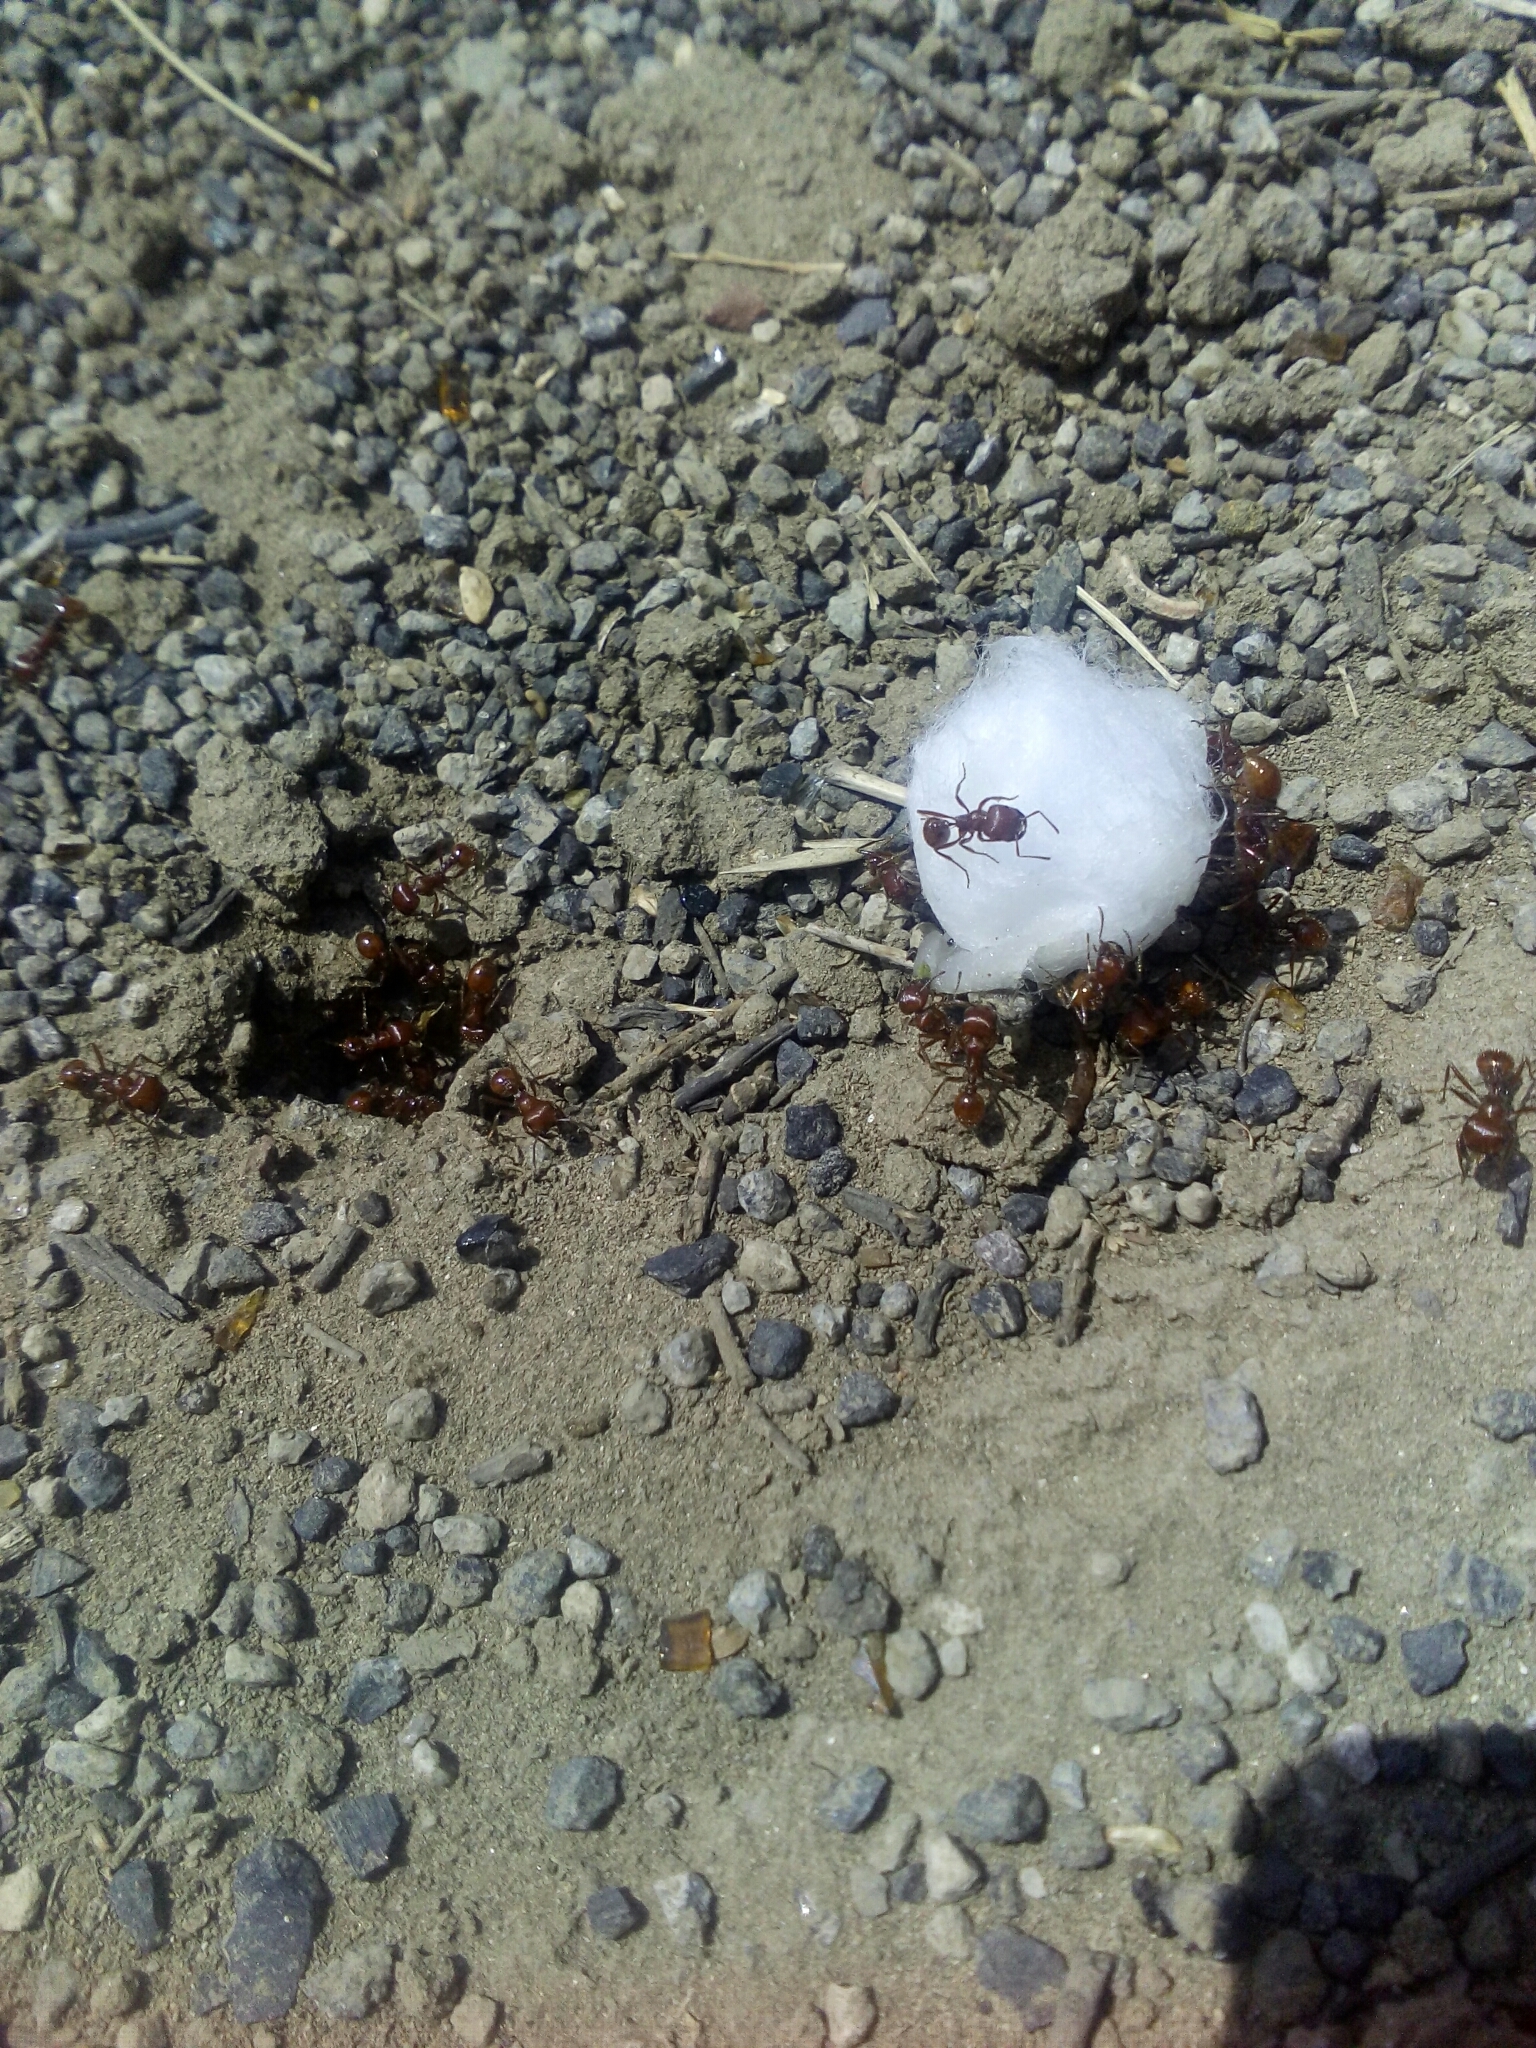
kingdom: Animalia
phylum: Arthropoda
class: Insecta
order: Hymenoptera
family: Formicidae
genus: Pogonomyrmex
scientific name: Pogonomyrmex barbatus
